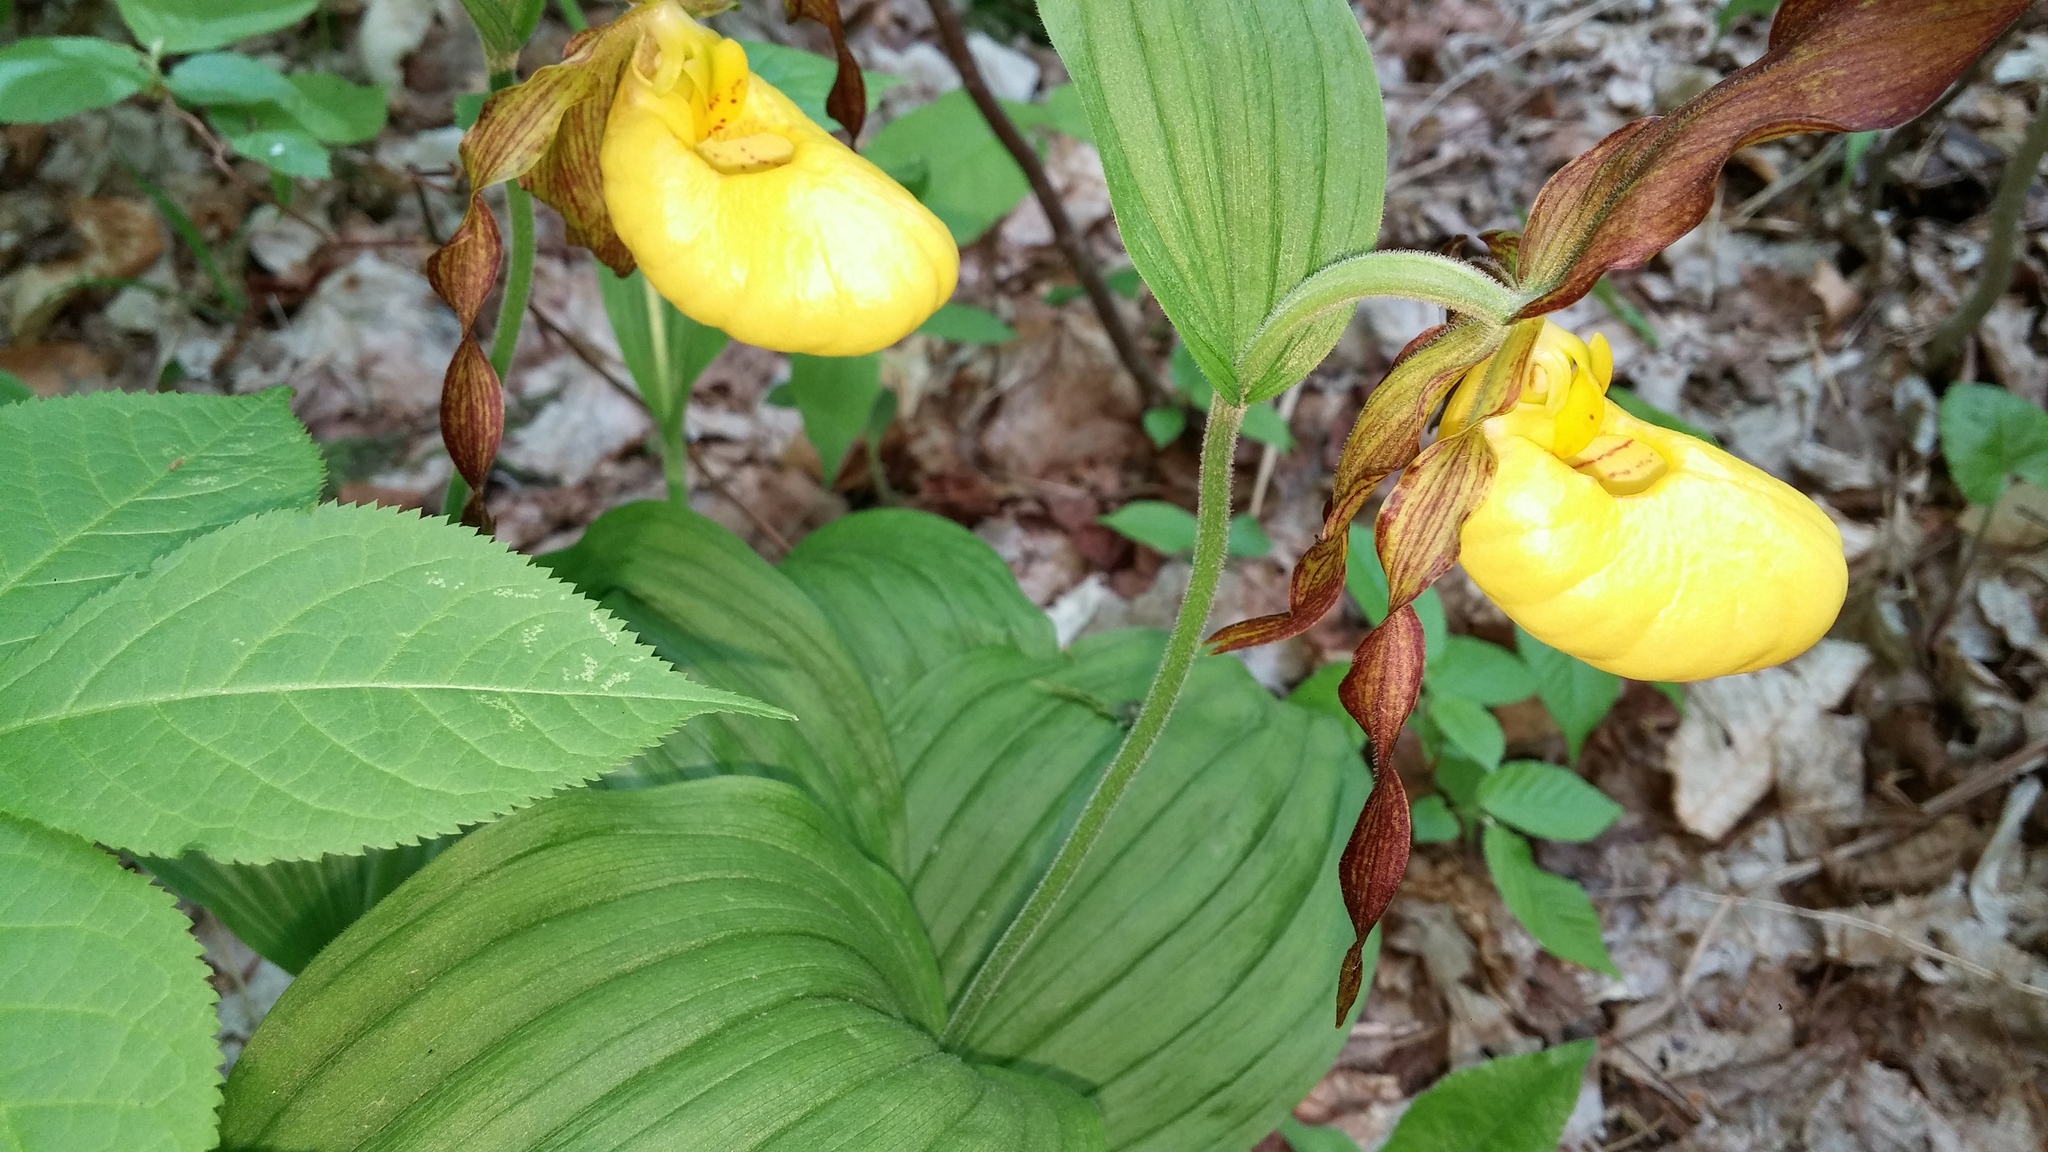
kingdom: Plantae
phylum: Tracheophyta
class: Liliopsida
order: Asparagales
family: Orchidaceae
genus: Cypripedium
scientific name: Cypripedium parviflorum
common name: American yellow lady's-slipper
